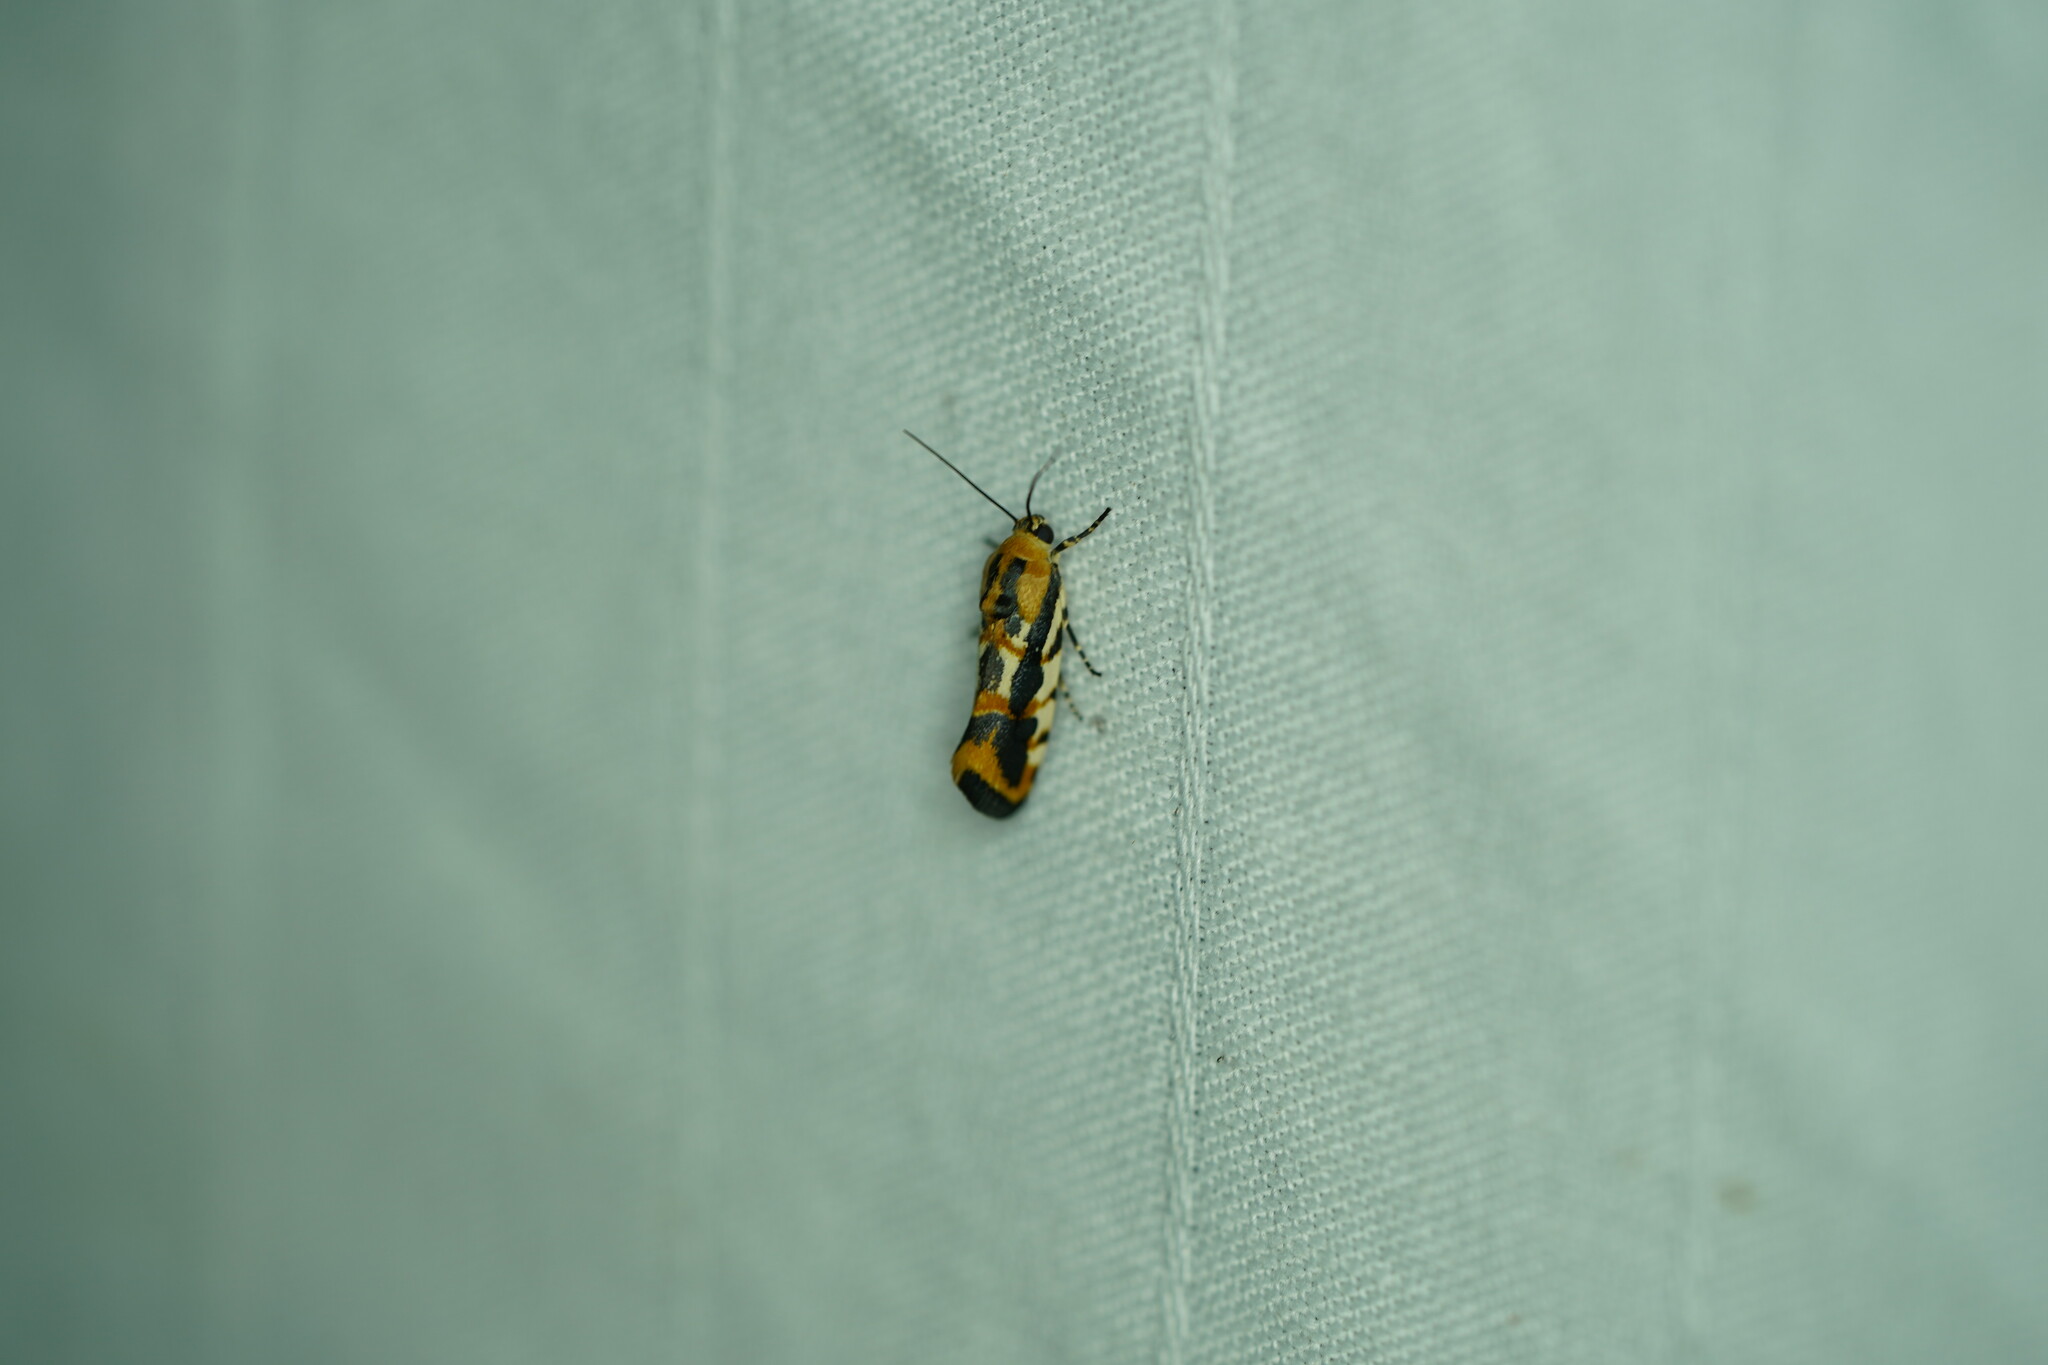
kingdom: Animalia
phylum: Arthropoda
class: Insecta
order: Lepidoptera
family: Noctuidae
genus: Acontia
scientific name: Acontia leo
